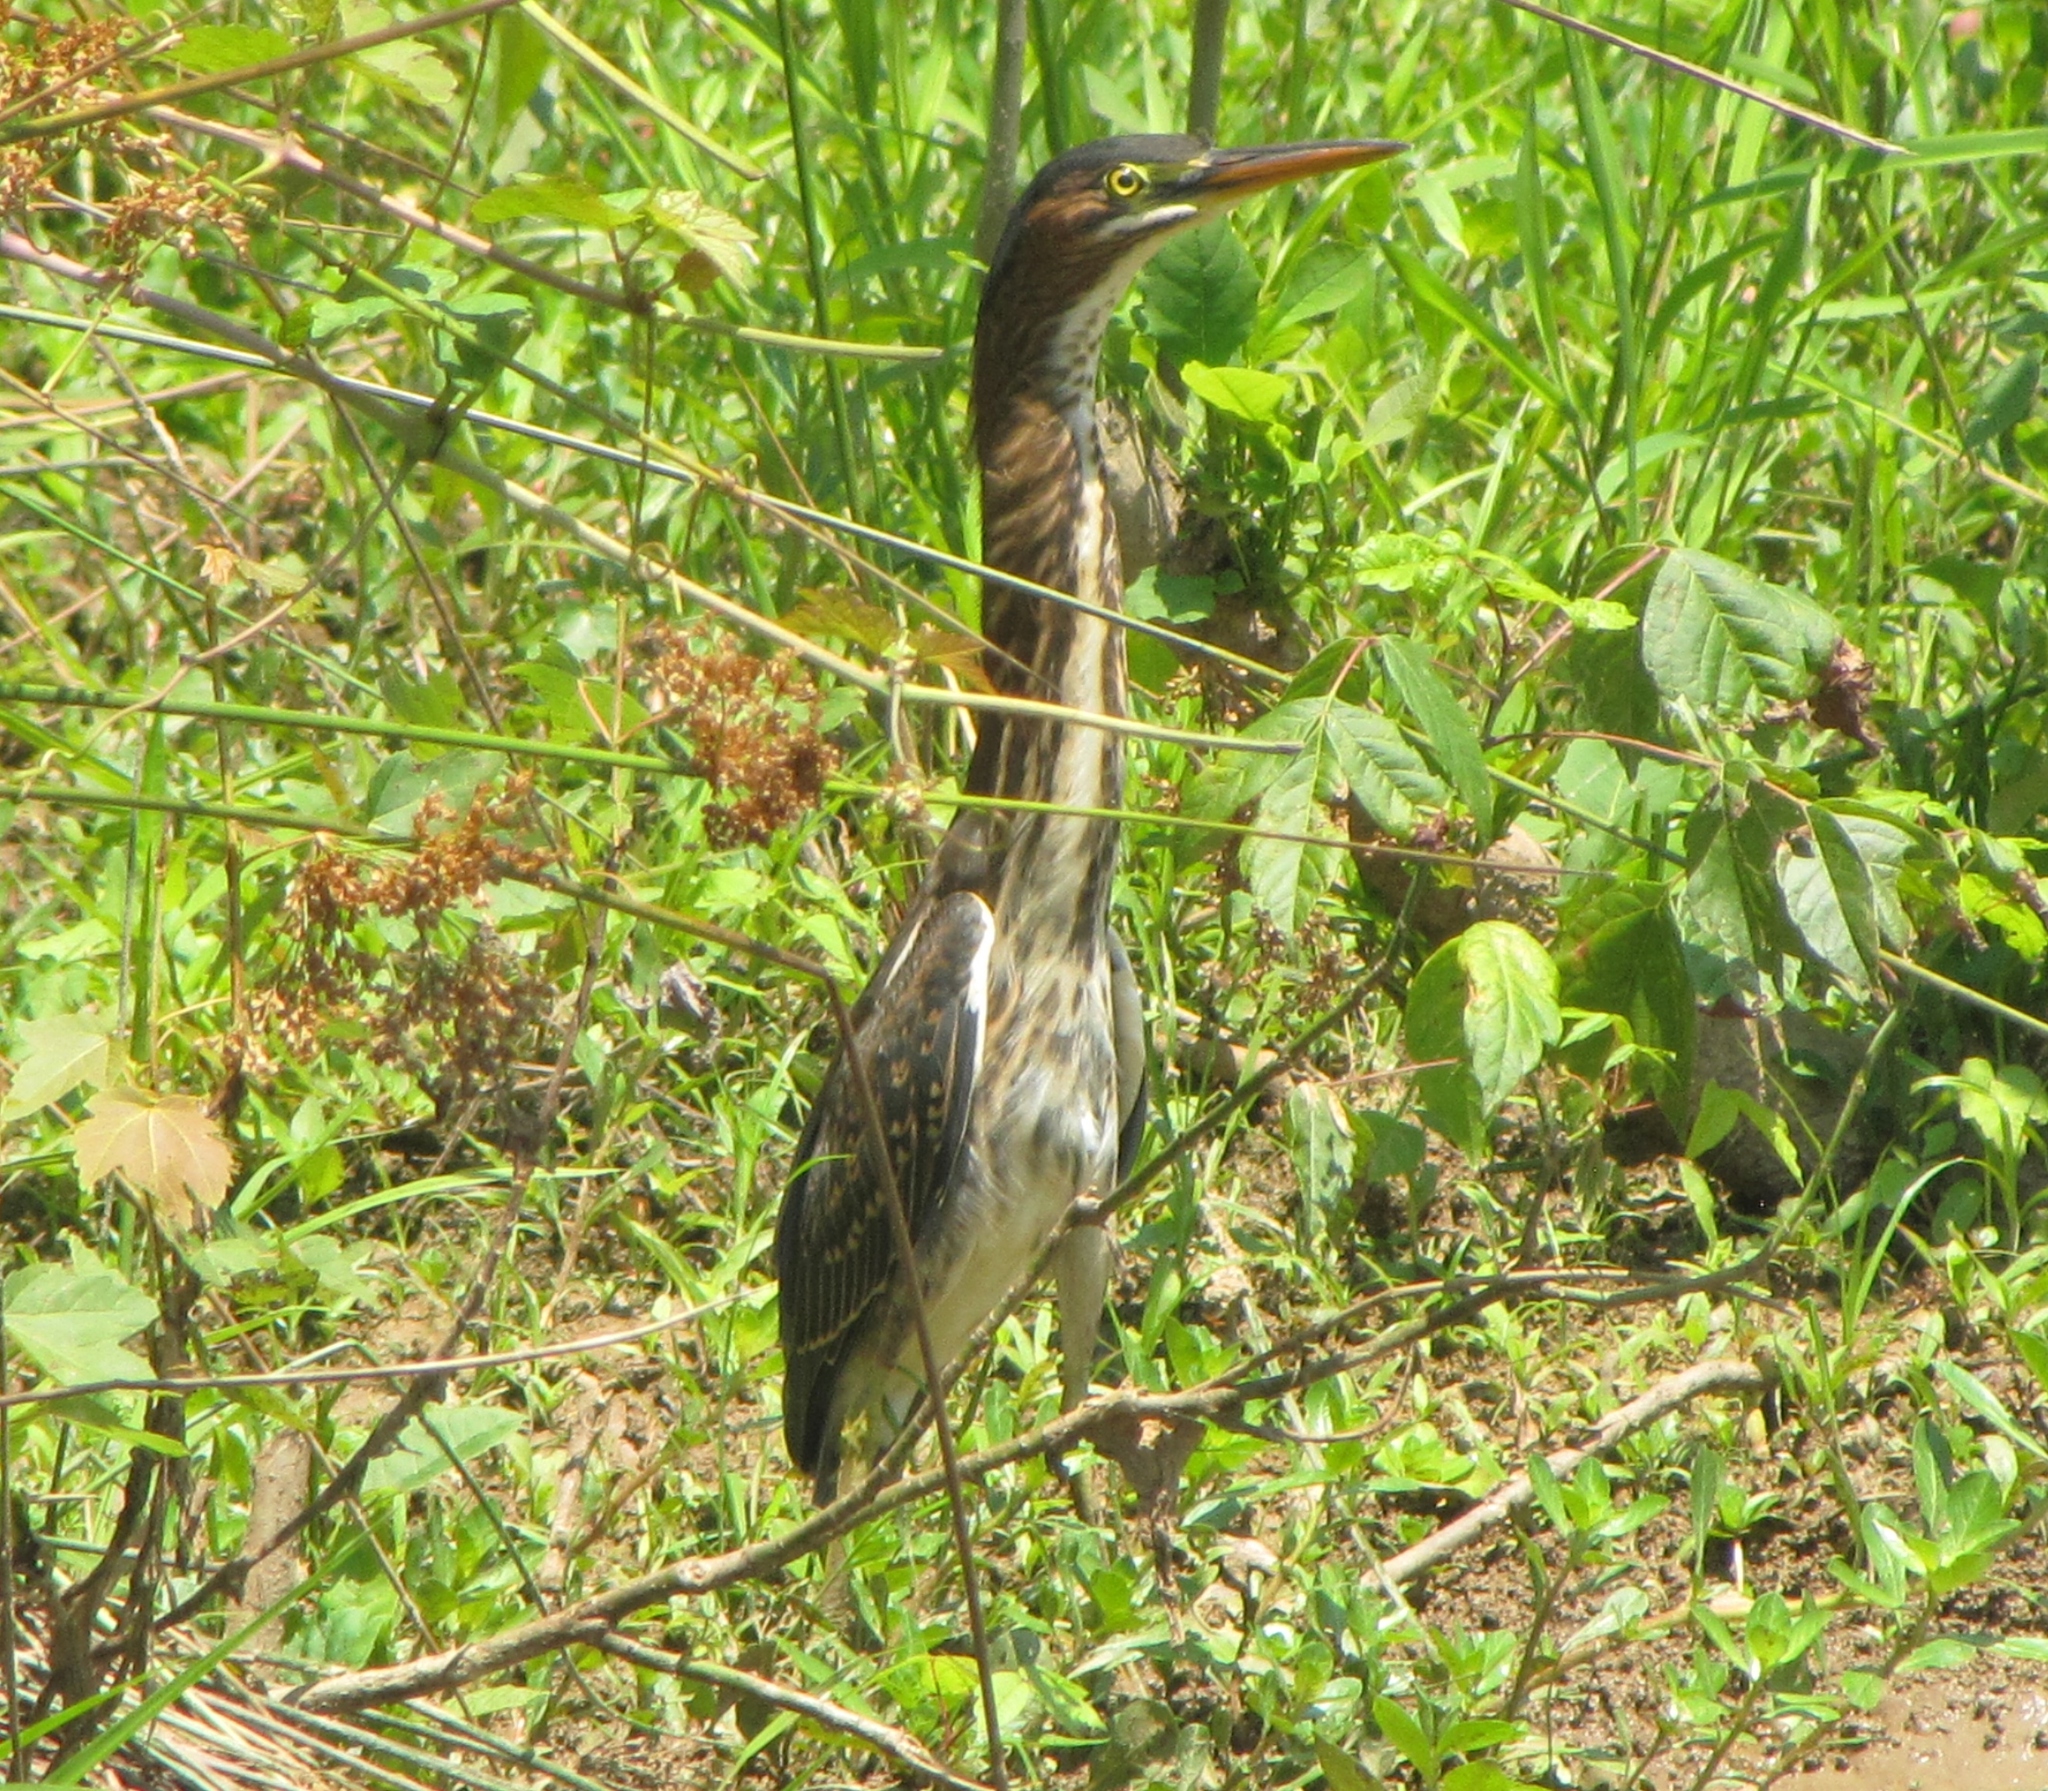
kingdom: Animalia
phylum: Chordata
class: Aves
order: Pelecaniformes
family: Ardeidae
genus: Butorides
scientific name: Butorides virescens
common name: Green heron
